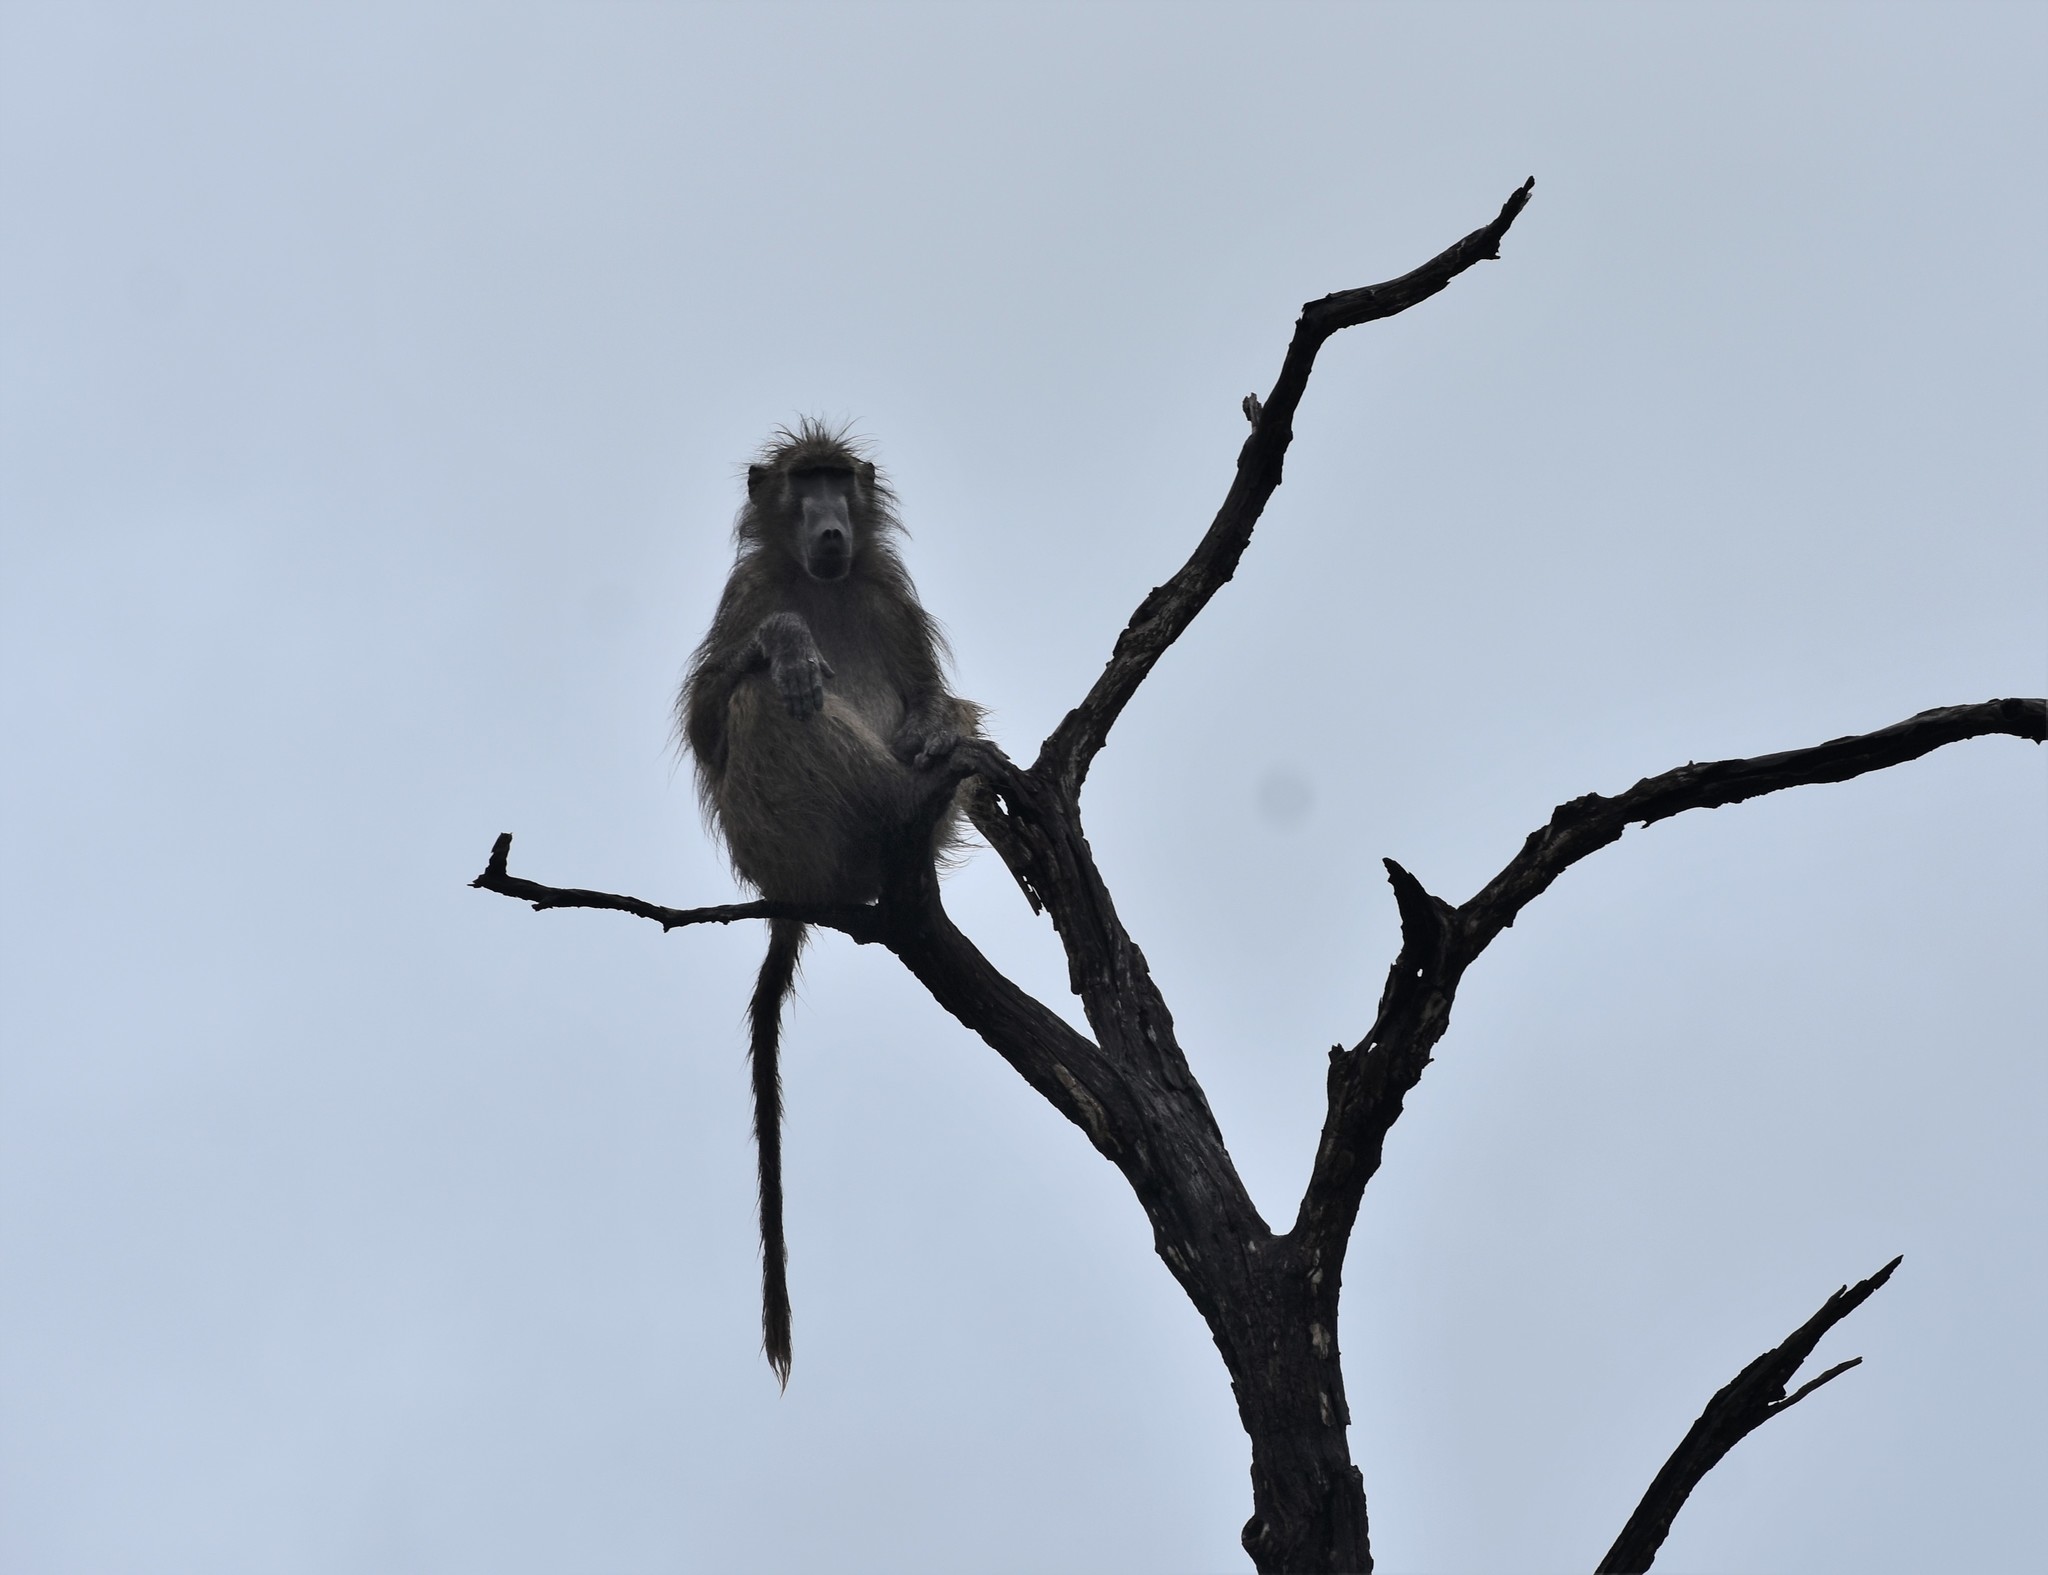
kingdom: Animalia
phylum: Chordata
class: Mammalia
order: Primates
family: Cercopithecidae
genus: Papio
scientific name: Papio ursinus
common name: Chacma baboon
